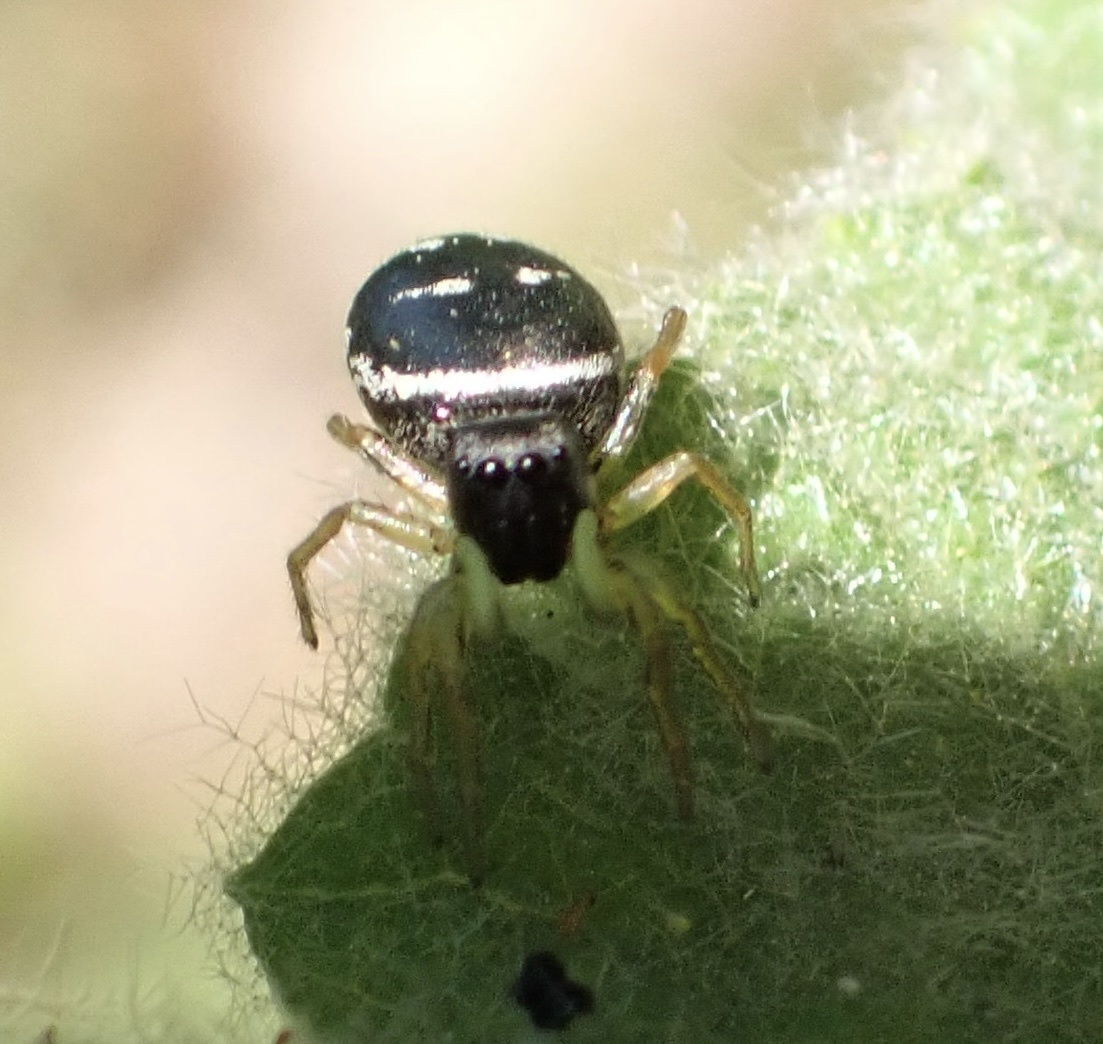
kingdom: Animalia
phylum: Arthropoda
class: Arachnida
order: Araneae
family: Salticidae
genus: Heliophanus
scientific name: Heliophanus cupreus
